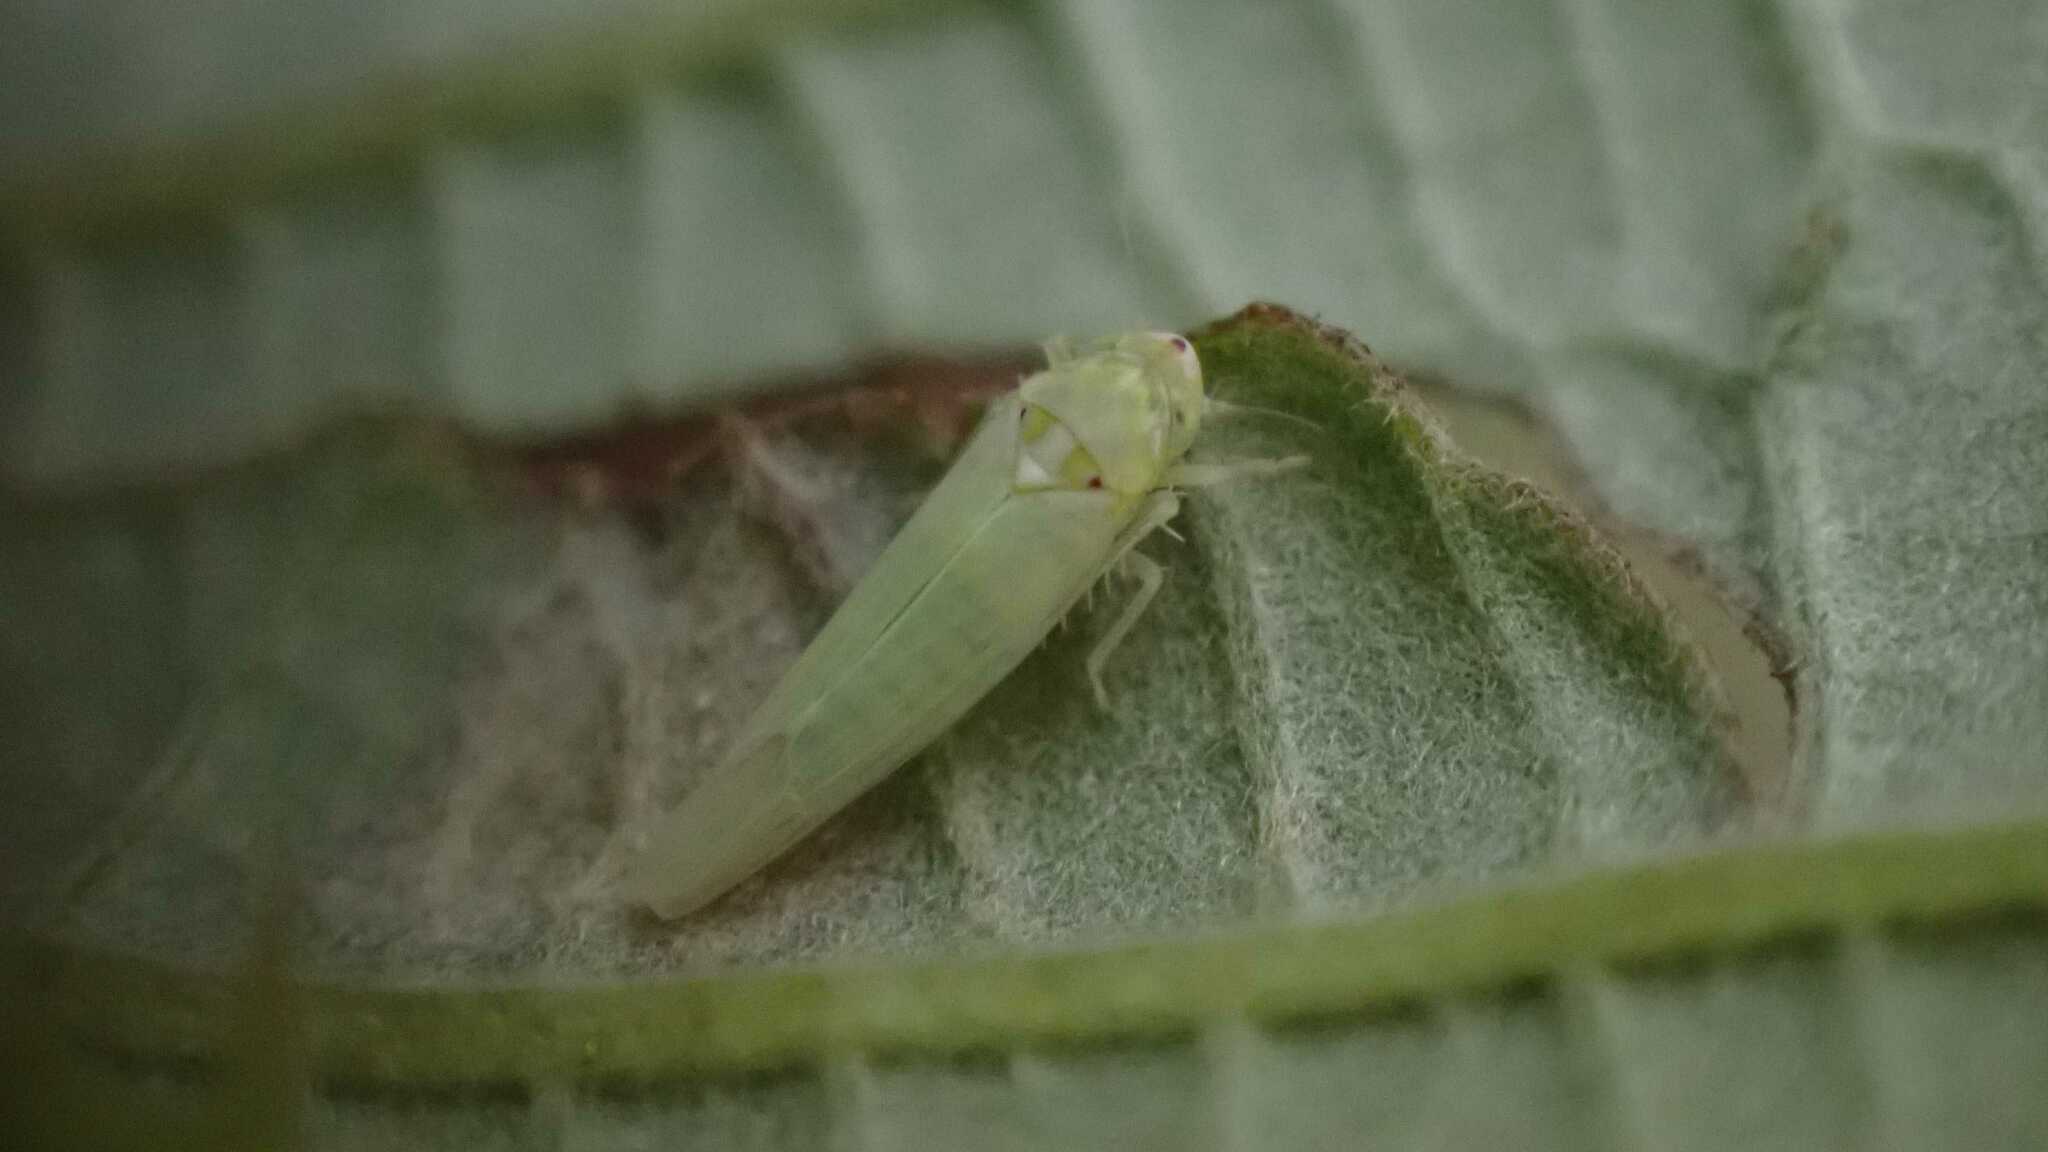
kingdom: Animalia
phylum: Arthropoda
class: Insecta
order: Hemiptera
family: Cicadellidae
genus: Zygina
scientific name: Zygina nivea
